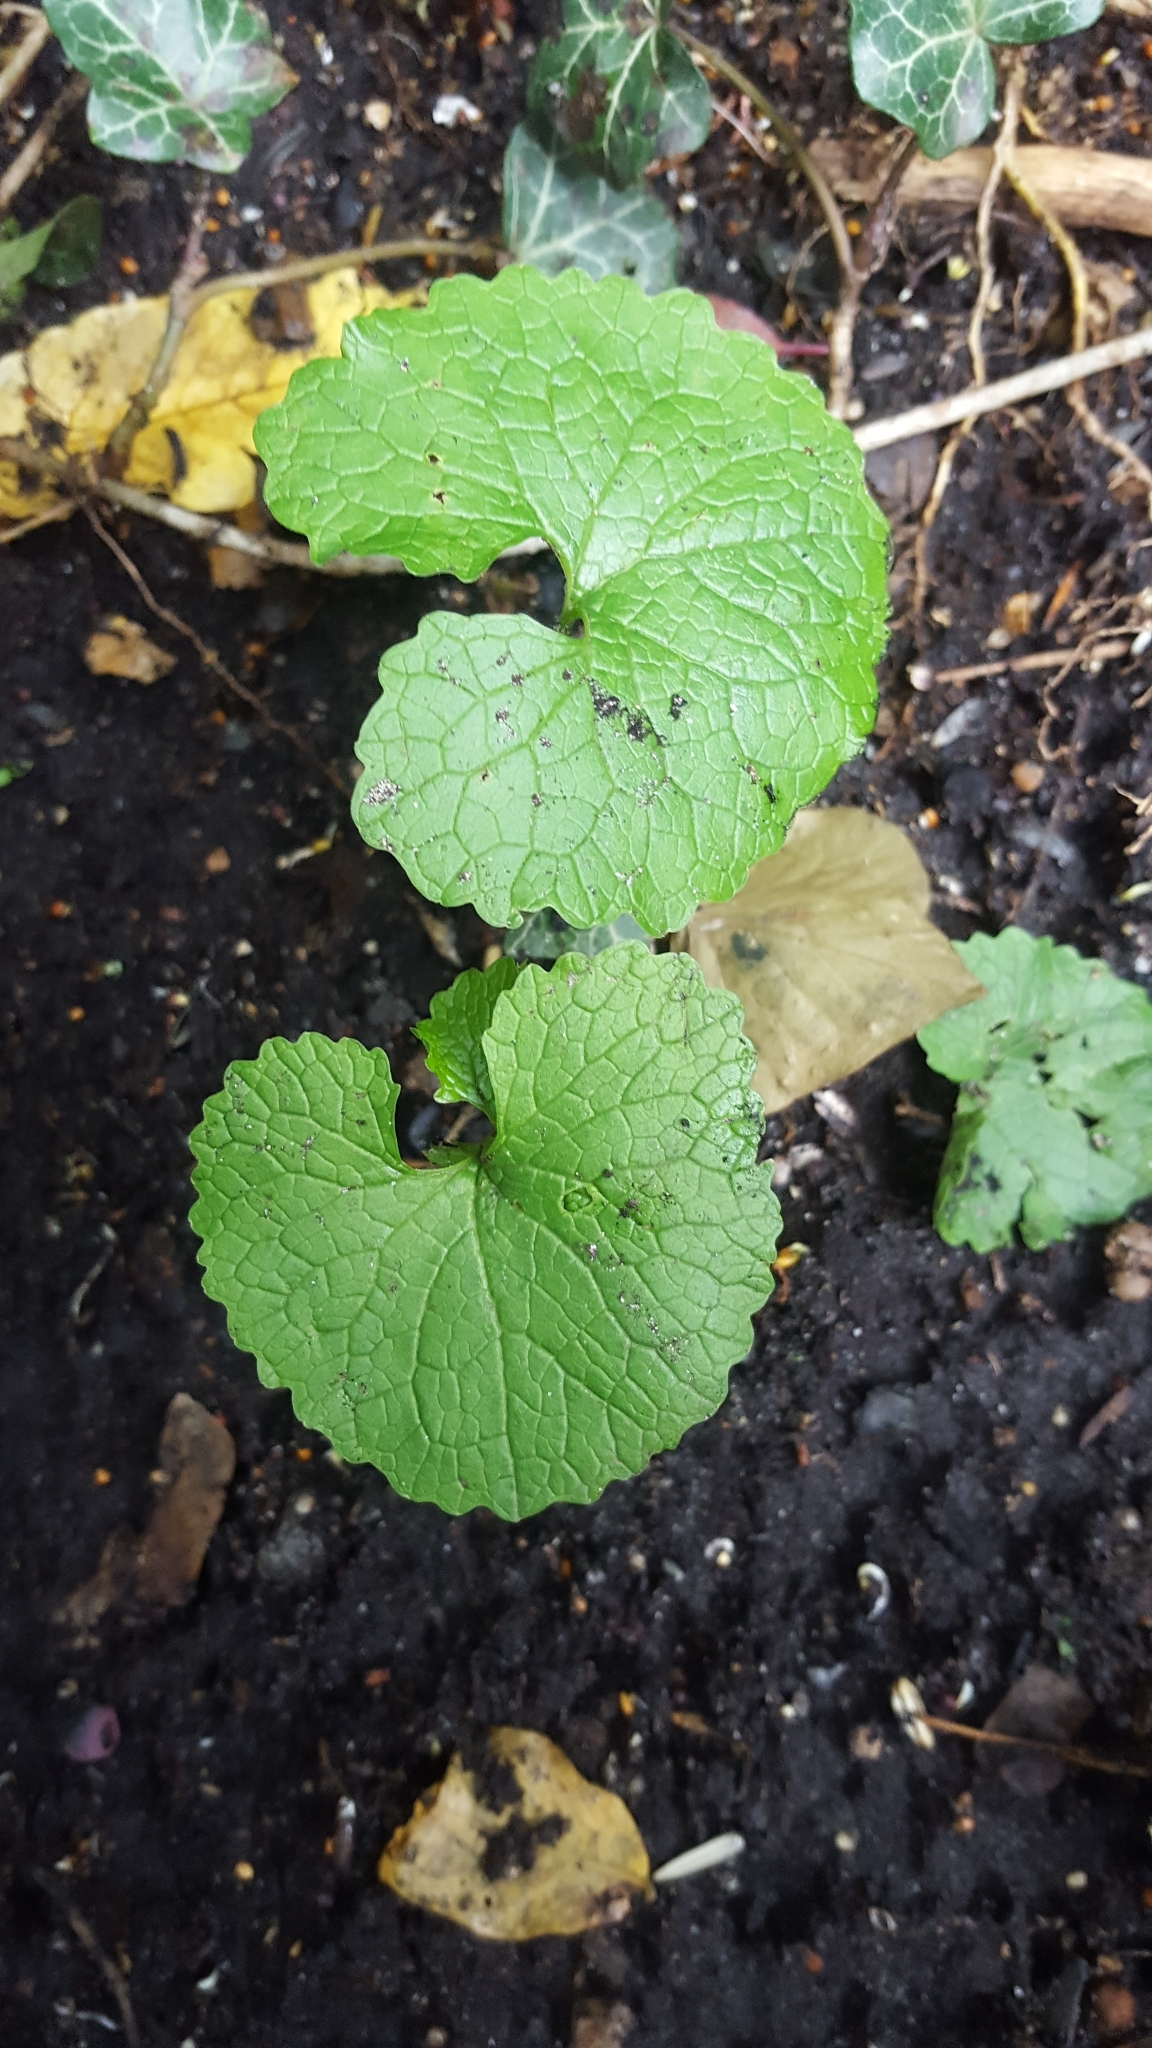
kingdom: Plantae
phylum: Tracheophyta
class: Magnoliopsida
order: Brassicales
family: Brassicaceae
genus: Alliaria
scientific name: Alliaria petiolata
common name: Garlic mustard
